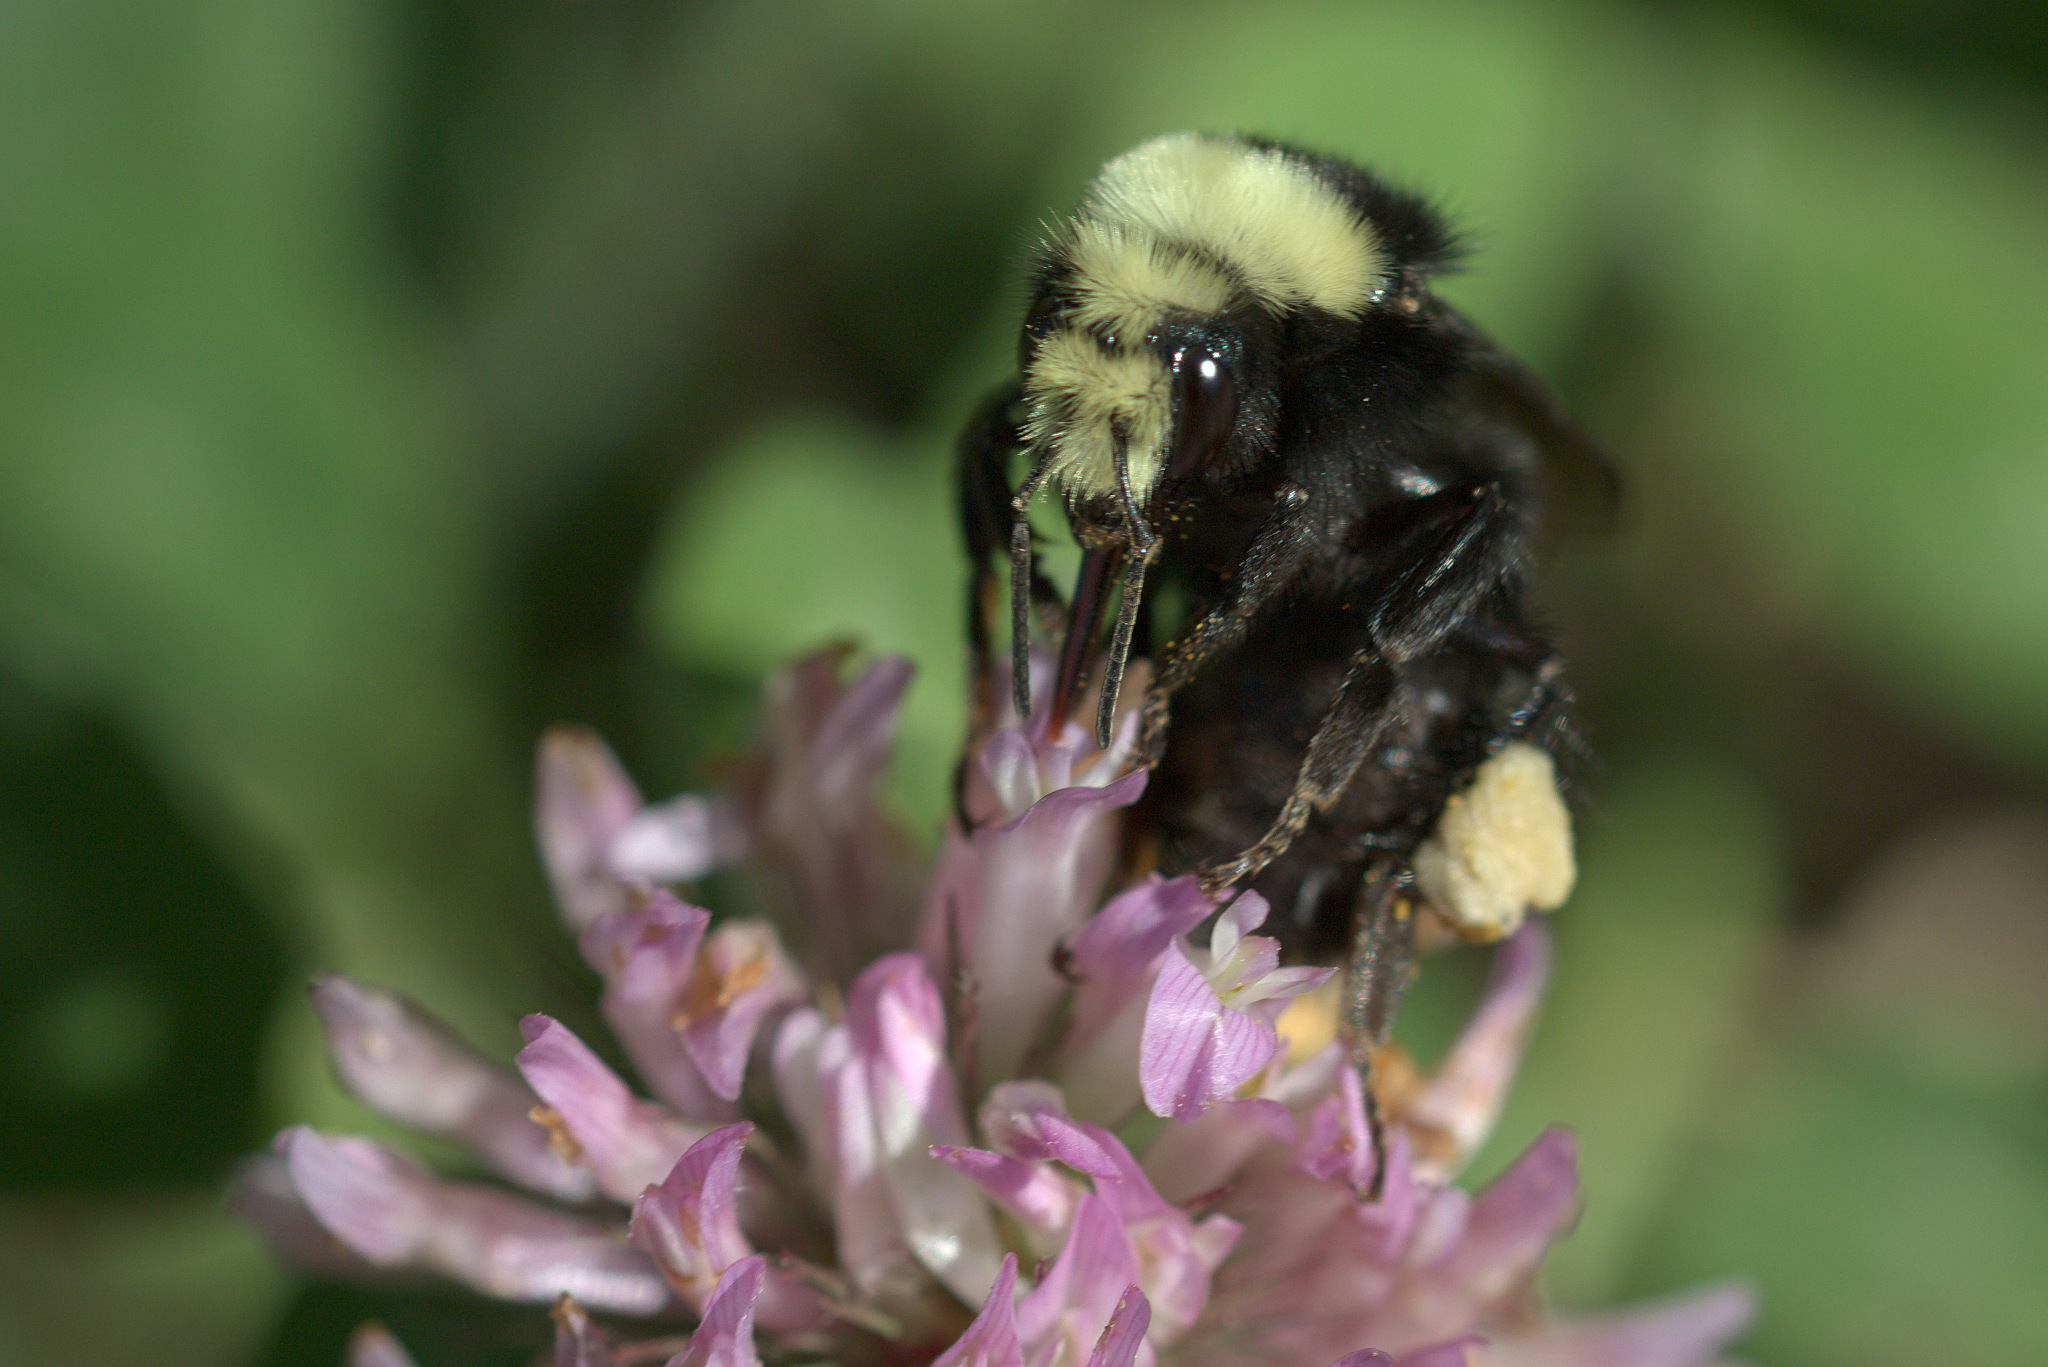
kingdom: Animalia
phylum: Arthropoda
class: Insecta
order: Hymenoptera
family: Apidae
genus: Bombus
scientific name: Bombus vosnesenskii
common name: Vosnesensky bumble bee
